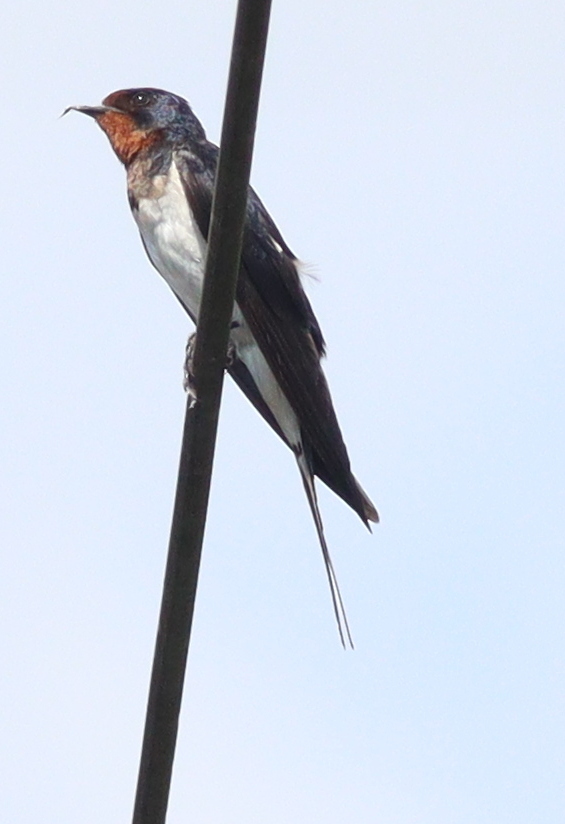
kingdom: Animalia
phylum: Chordata
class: Aves
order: Passeriformes
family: Hirundinidae
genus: Hirundo
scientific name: Hirundo rustica
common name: Barn swallow
